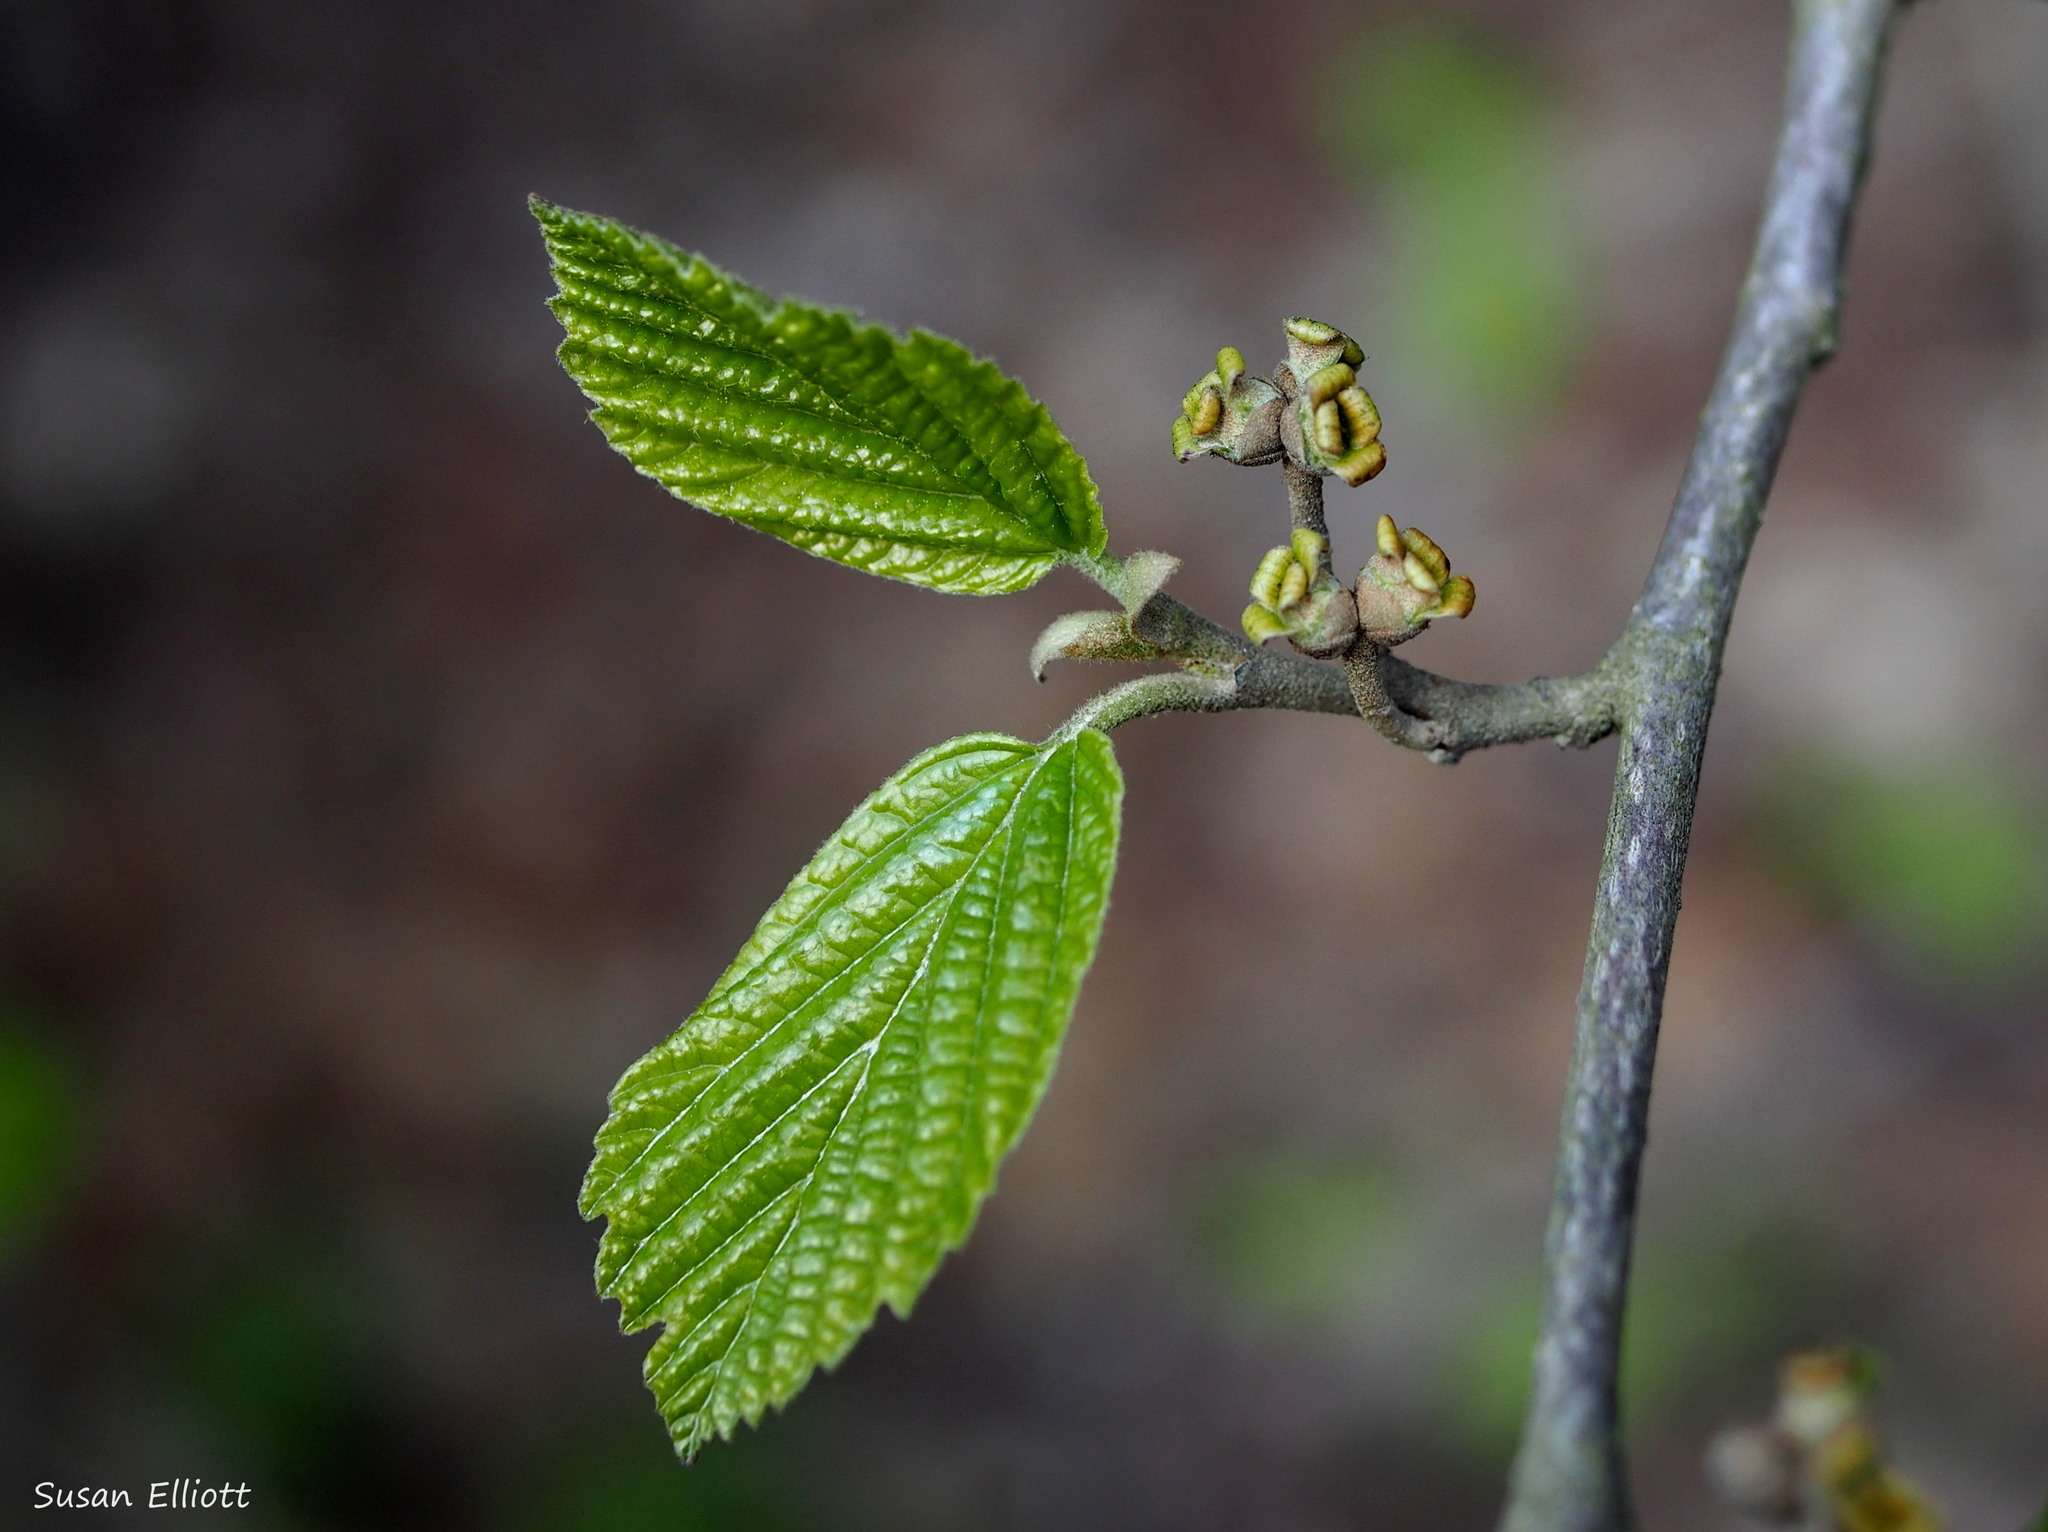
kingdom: Plantae
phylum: Tracheophyta
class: Magnoliopsida
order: Saxifragales
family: Hamamelidaceae
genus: Hamamelis
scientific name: Hamamelis virginiana
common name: Witch-hazel
